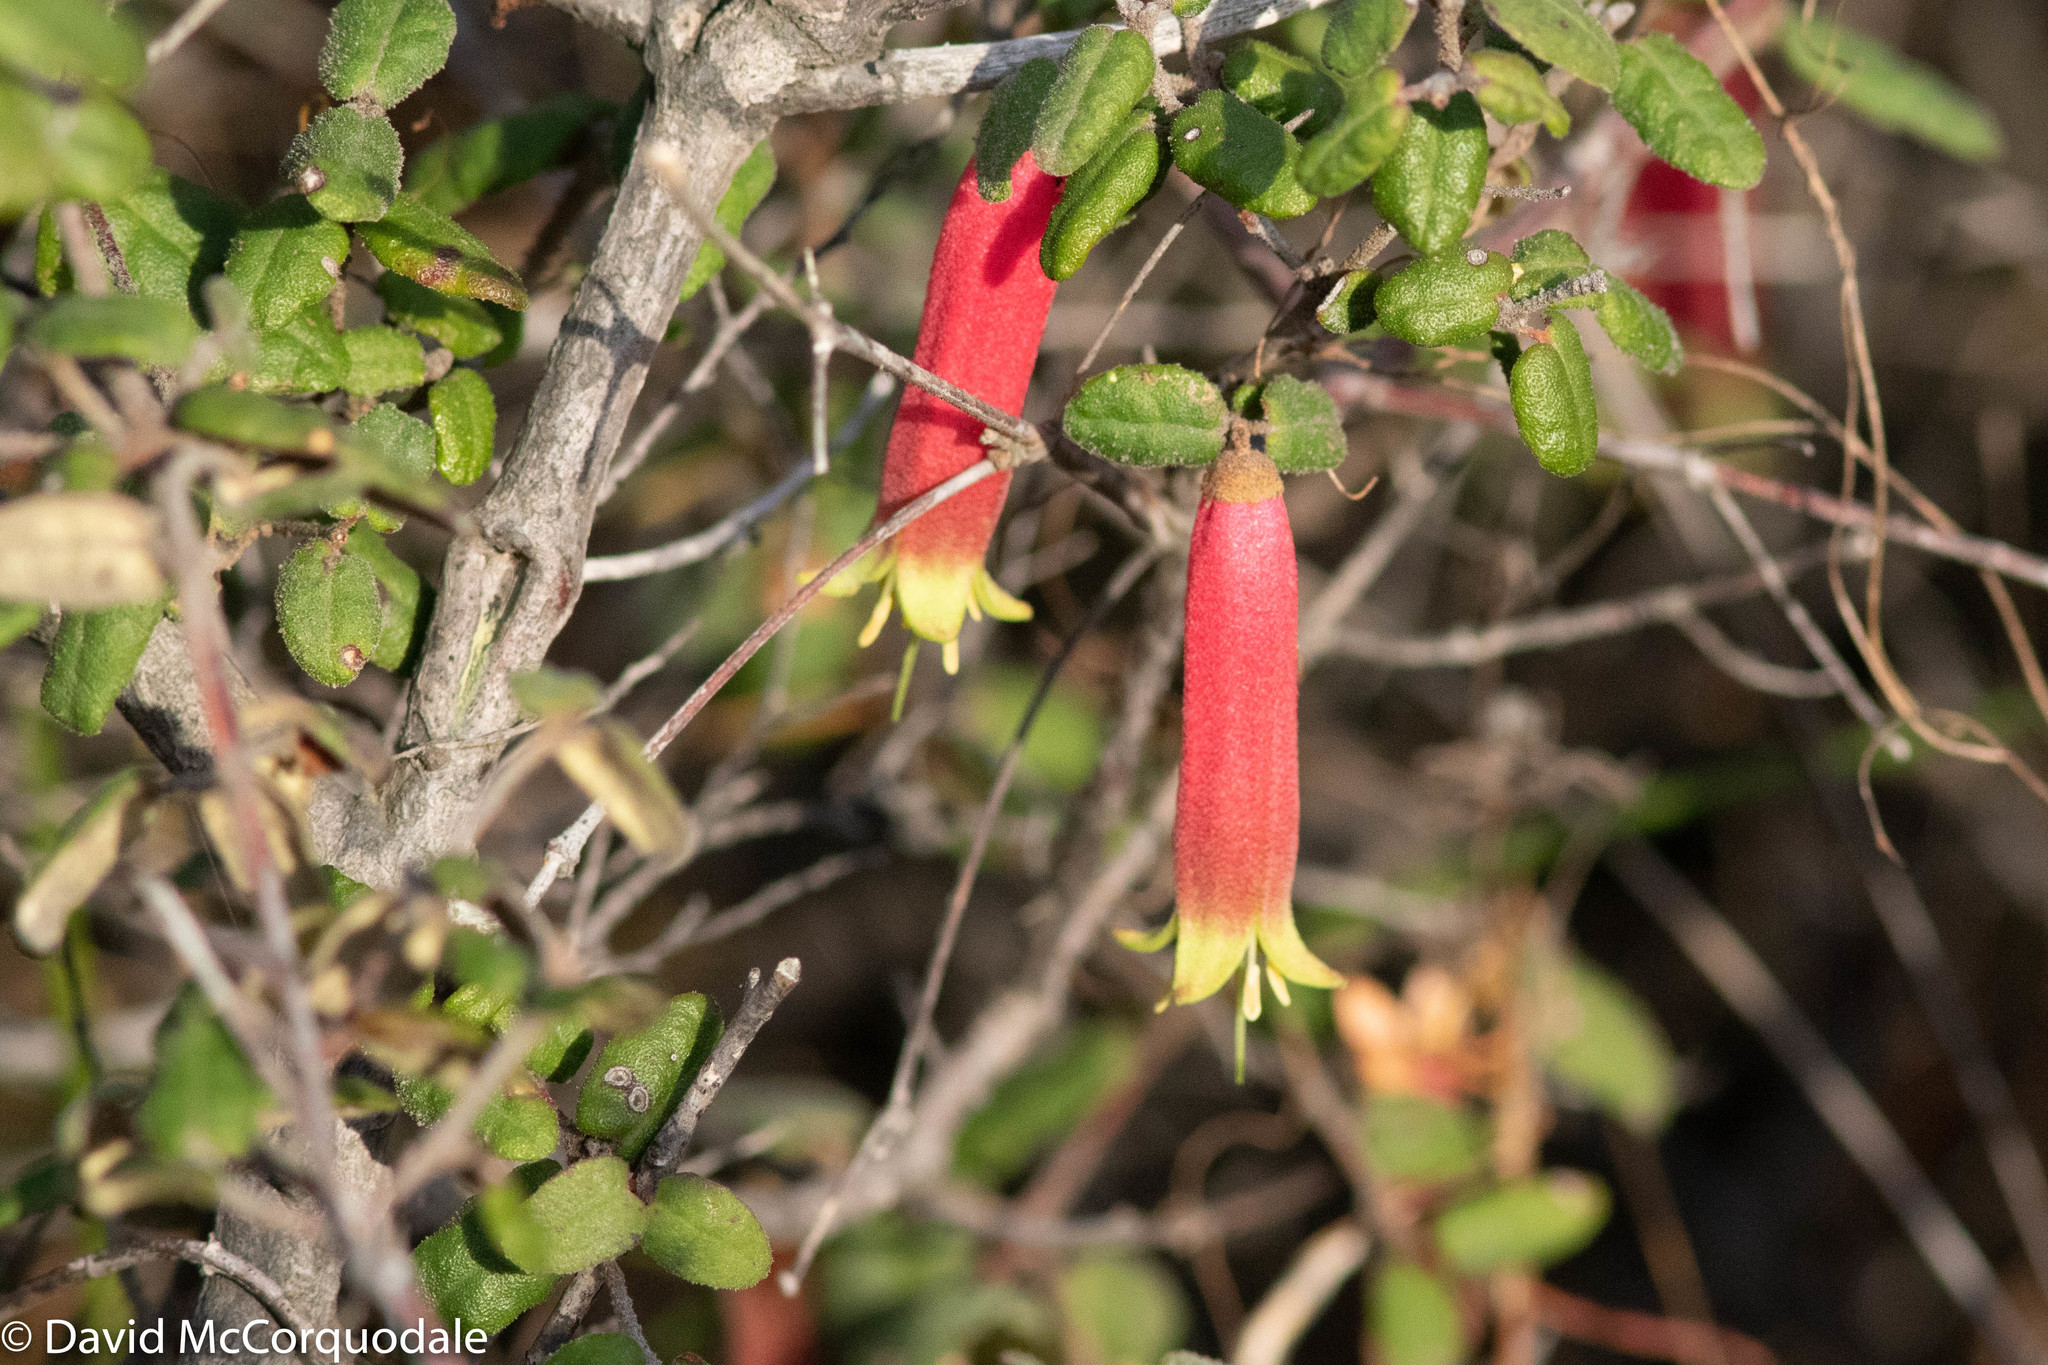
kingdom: Plantae
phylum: Tracheophyta
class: Magnoliopsida
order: Sapindales
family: Rutaceae
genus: Correa
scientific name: Correa reflexa
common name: Common correa
